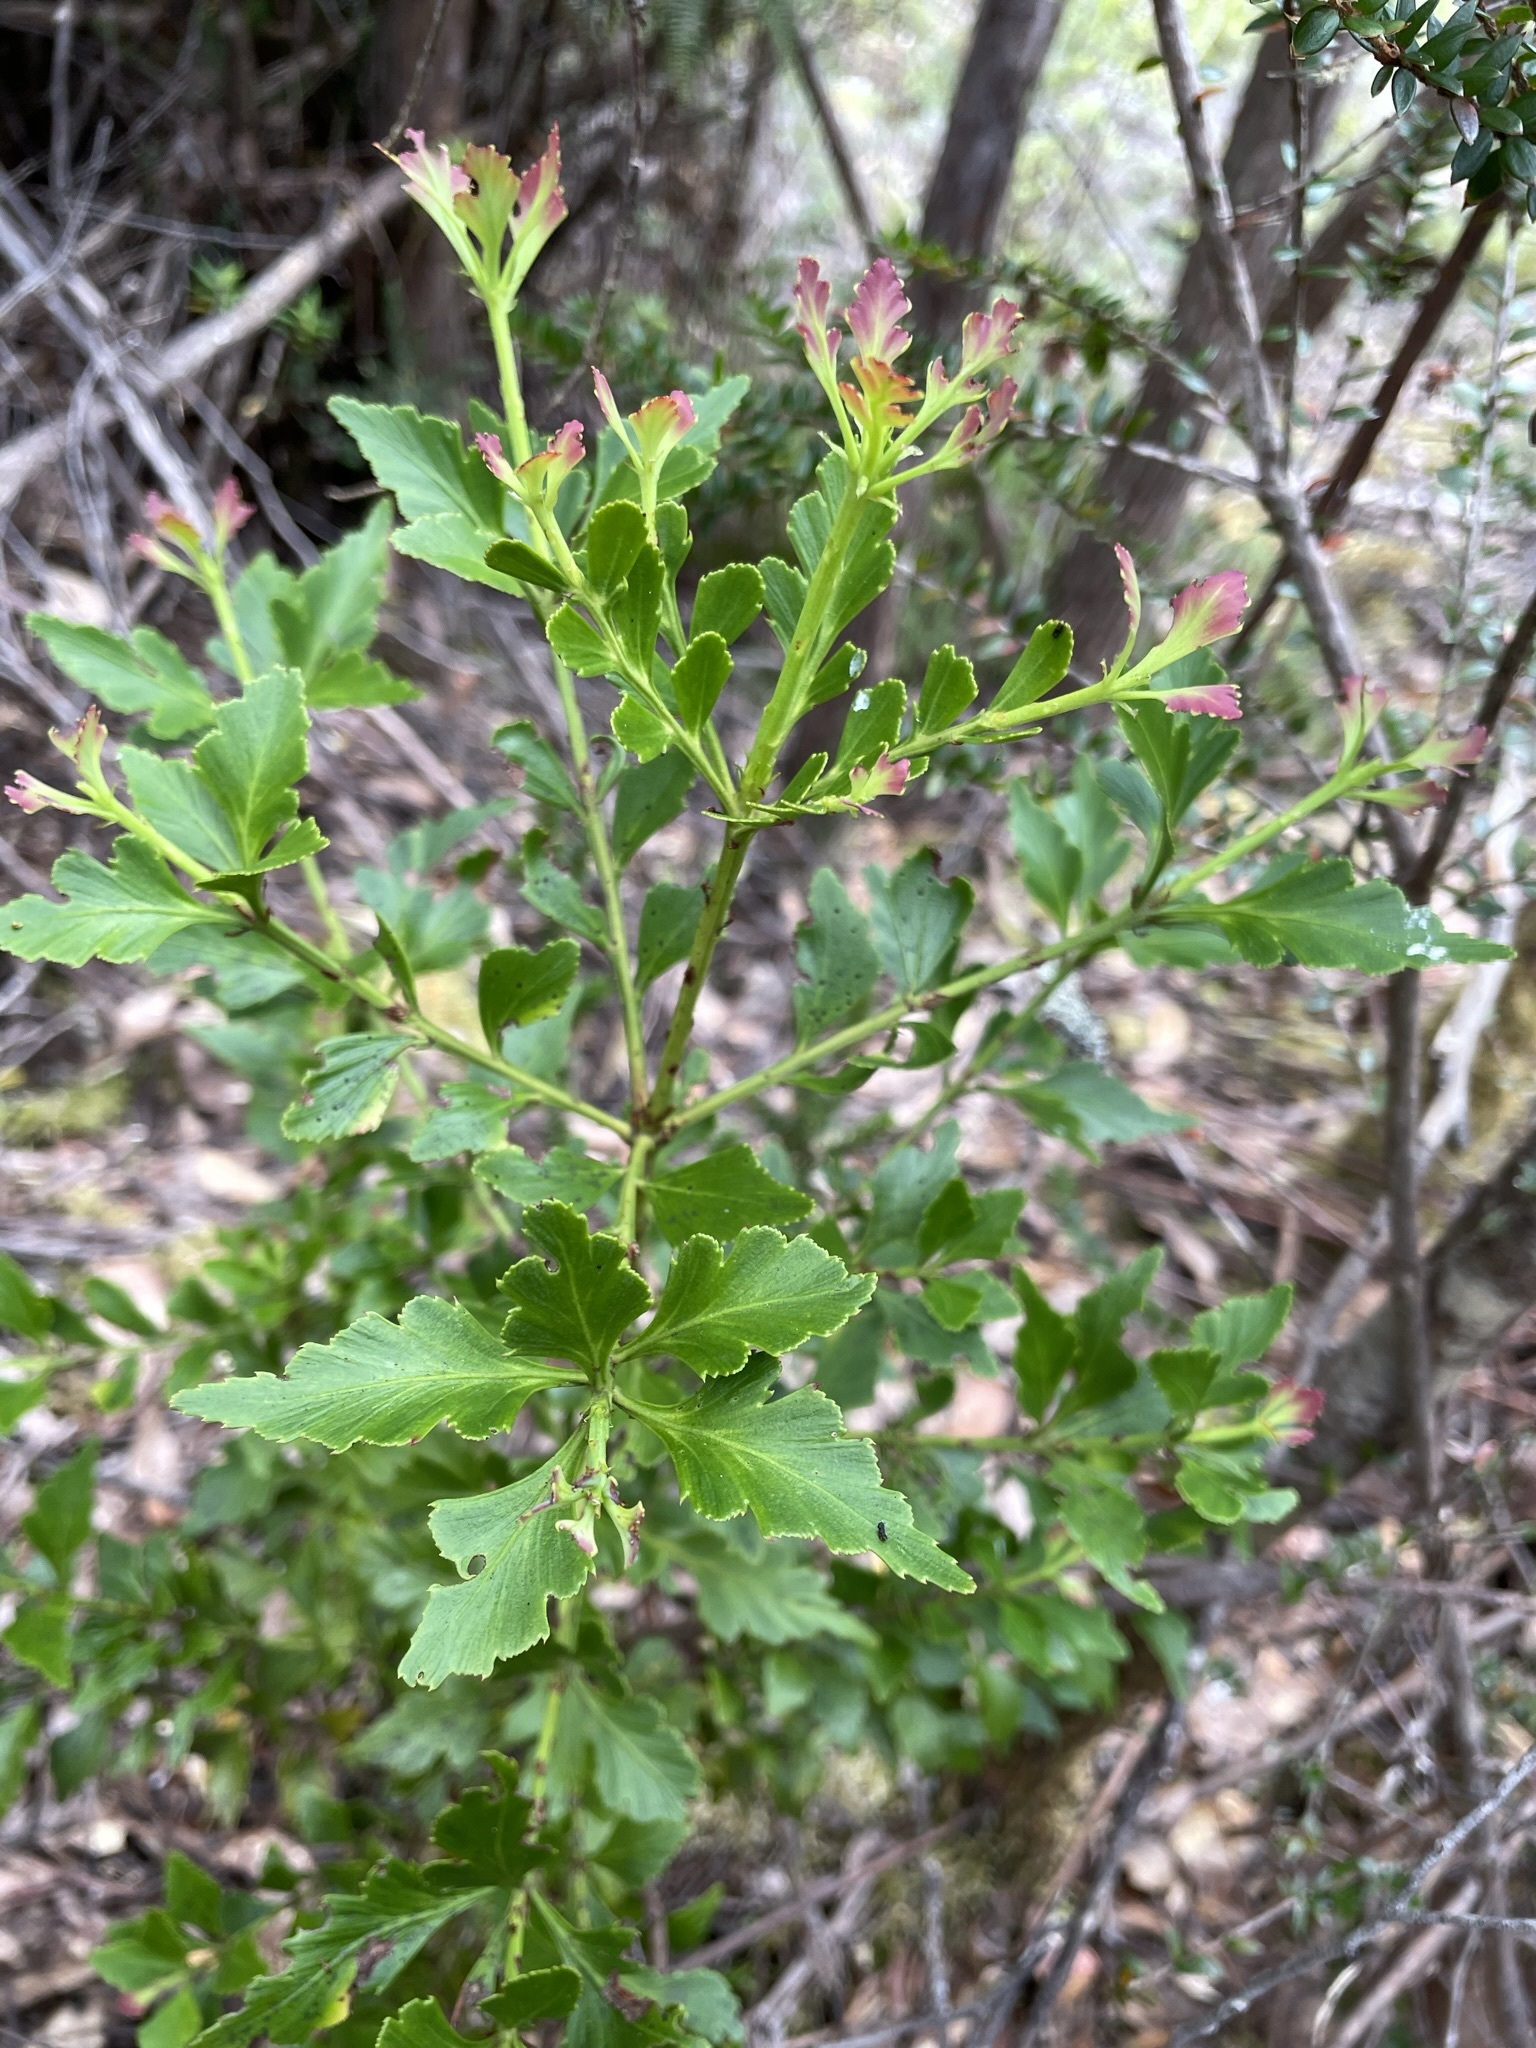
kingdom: Plantae
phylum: Tracheophyta
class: Pinopsida
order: Pinales
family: Phyllocladaceae
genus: Phyllocladus
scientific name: Phyllocladus aspleniifolius
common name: Celery-top pine
